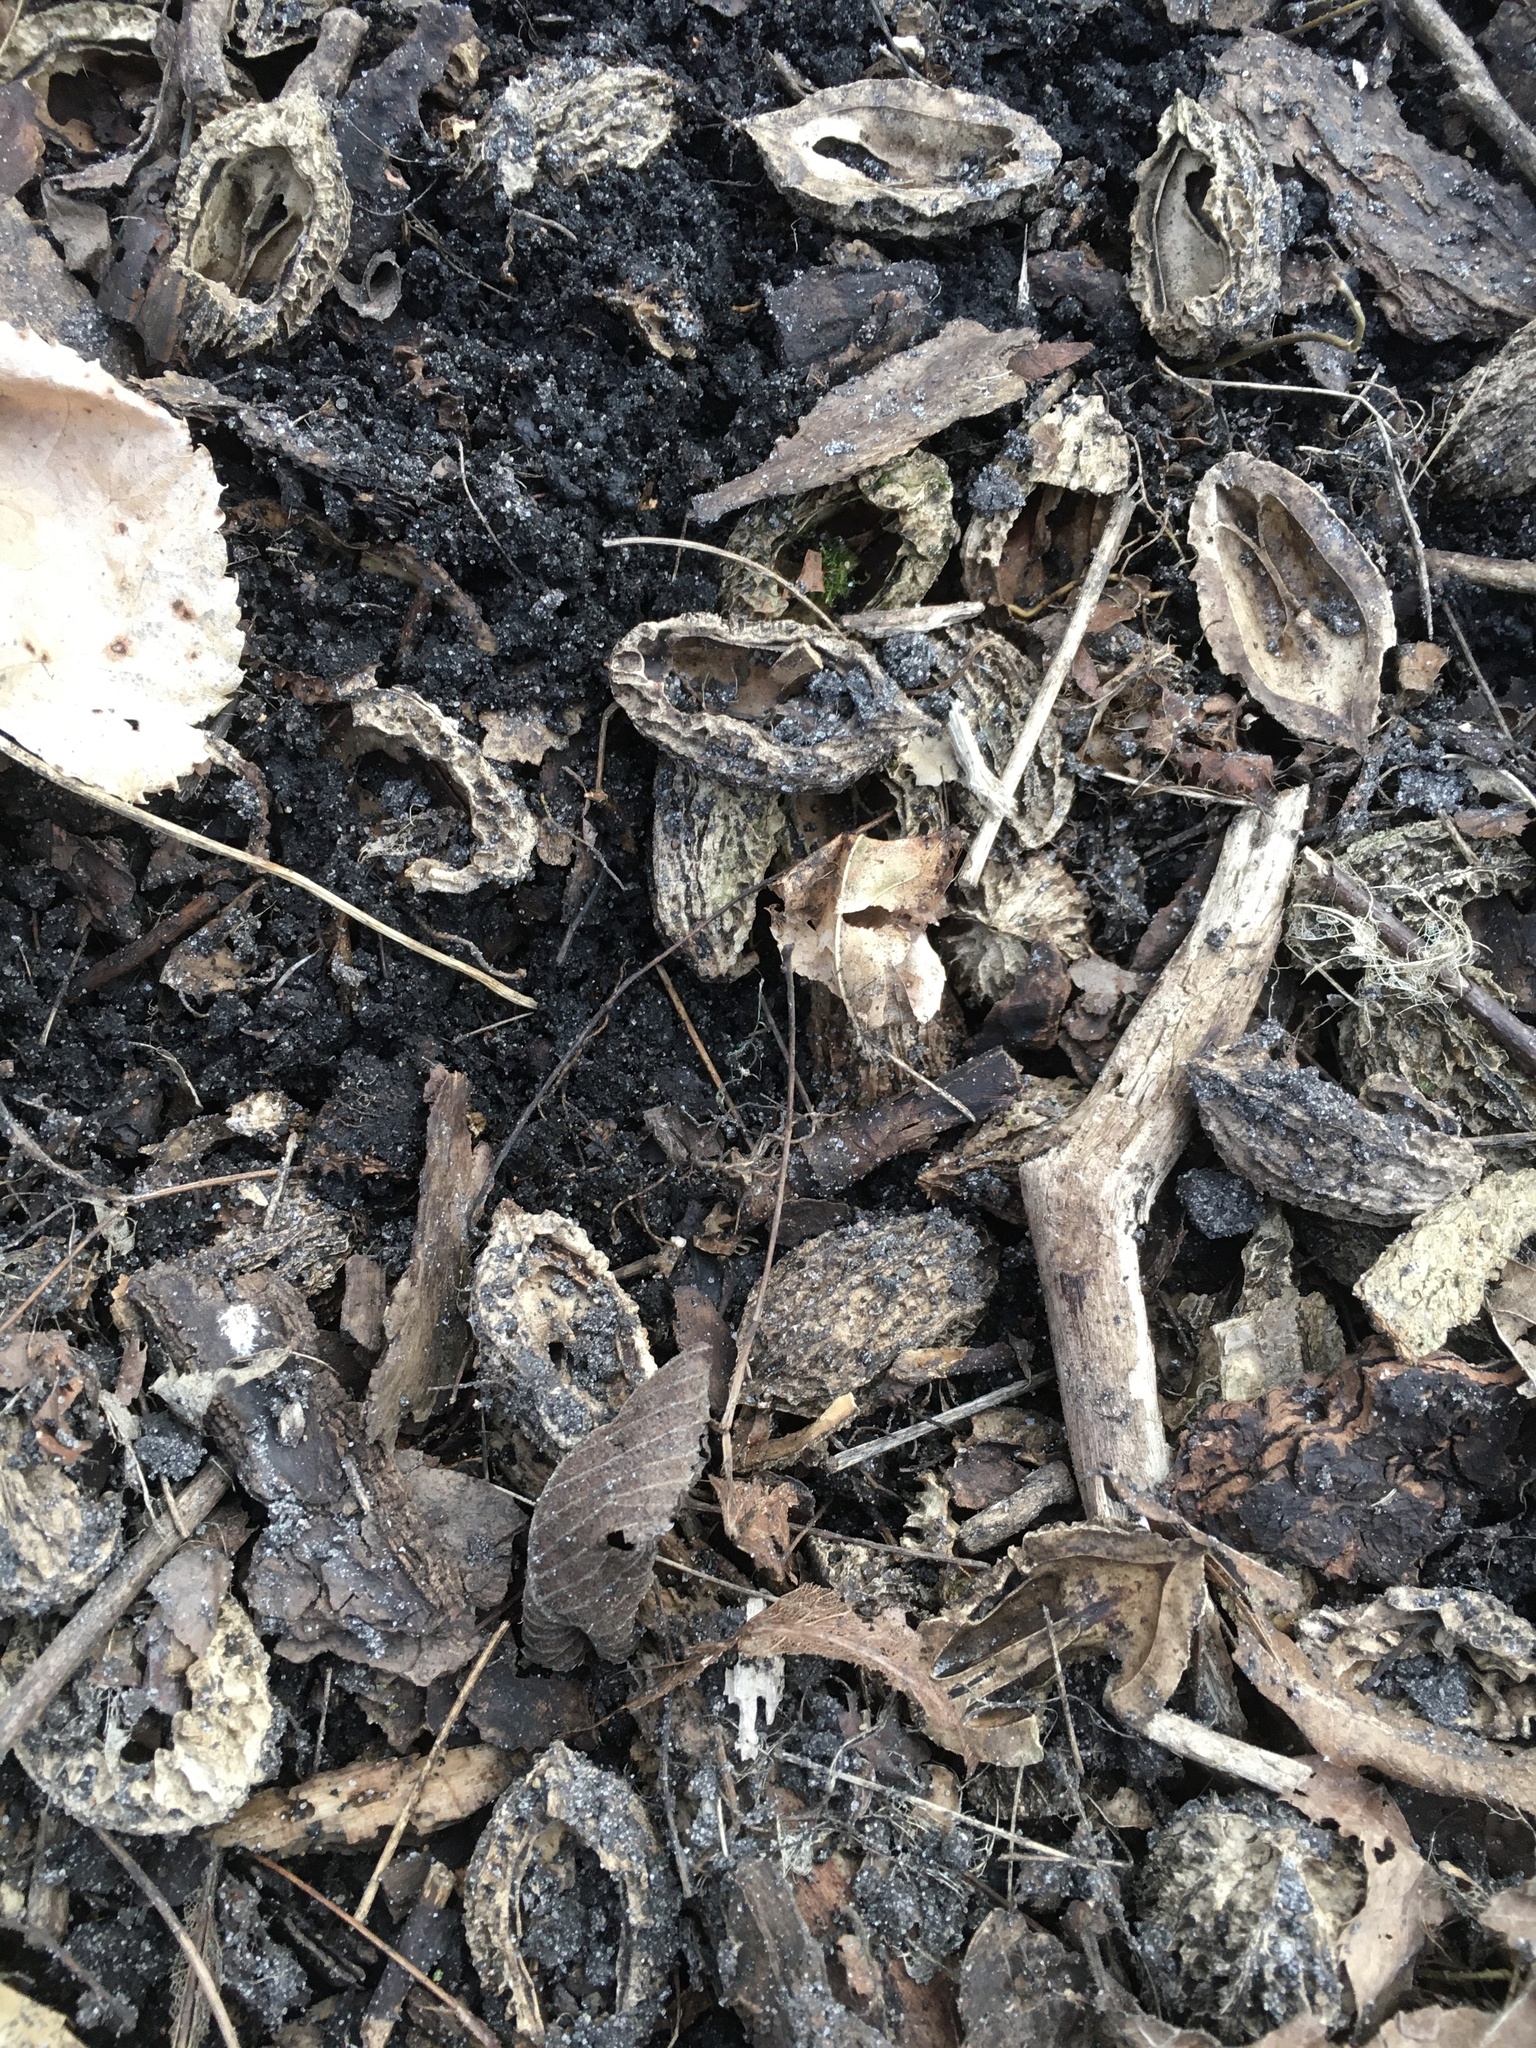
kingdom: Plantae
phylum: Tracheophyta
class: Magnoliopsida
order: Fagales
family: Juglandaceae
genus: Juglans
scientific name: Juglans cinerea
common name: Butternut
